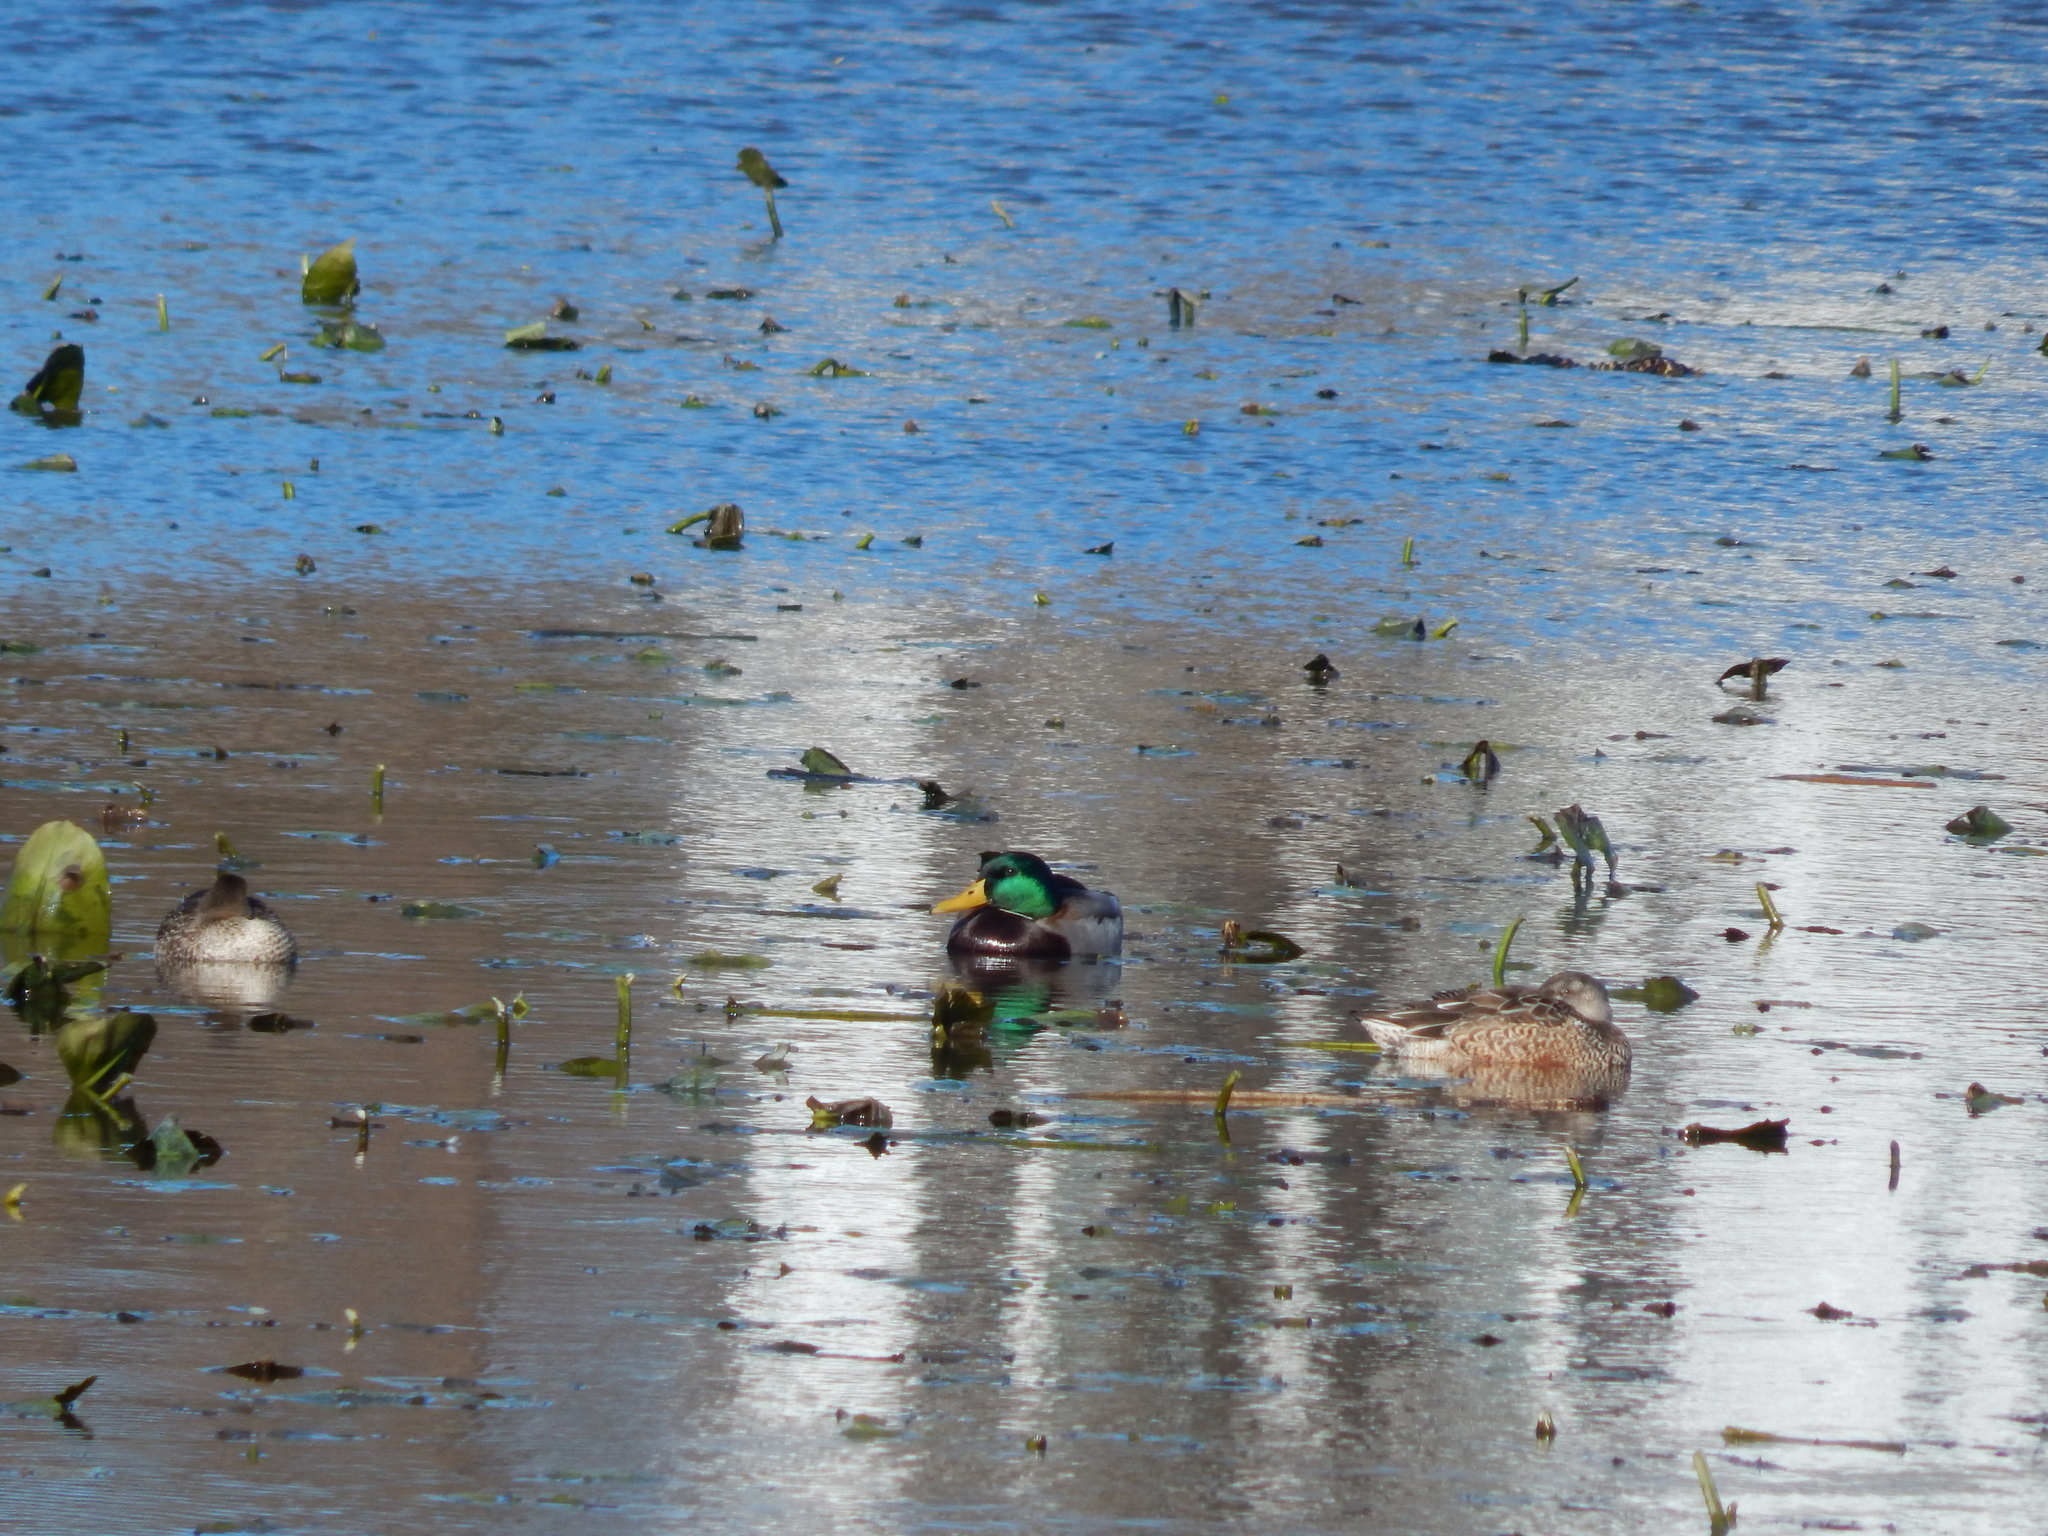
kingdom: Animalia
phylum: Chordata
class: Aves
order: Anseriformes
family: Anatidae
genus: Anas
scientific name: Anas platyrhynchos
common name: Mallard
